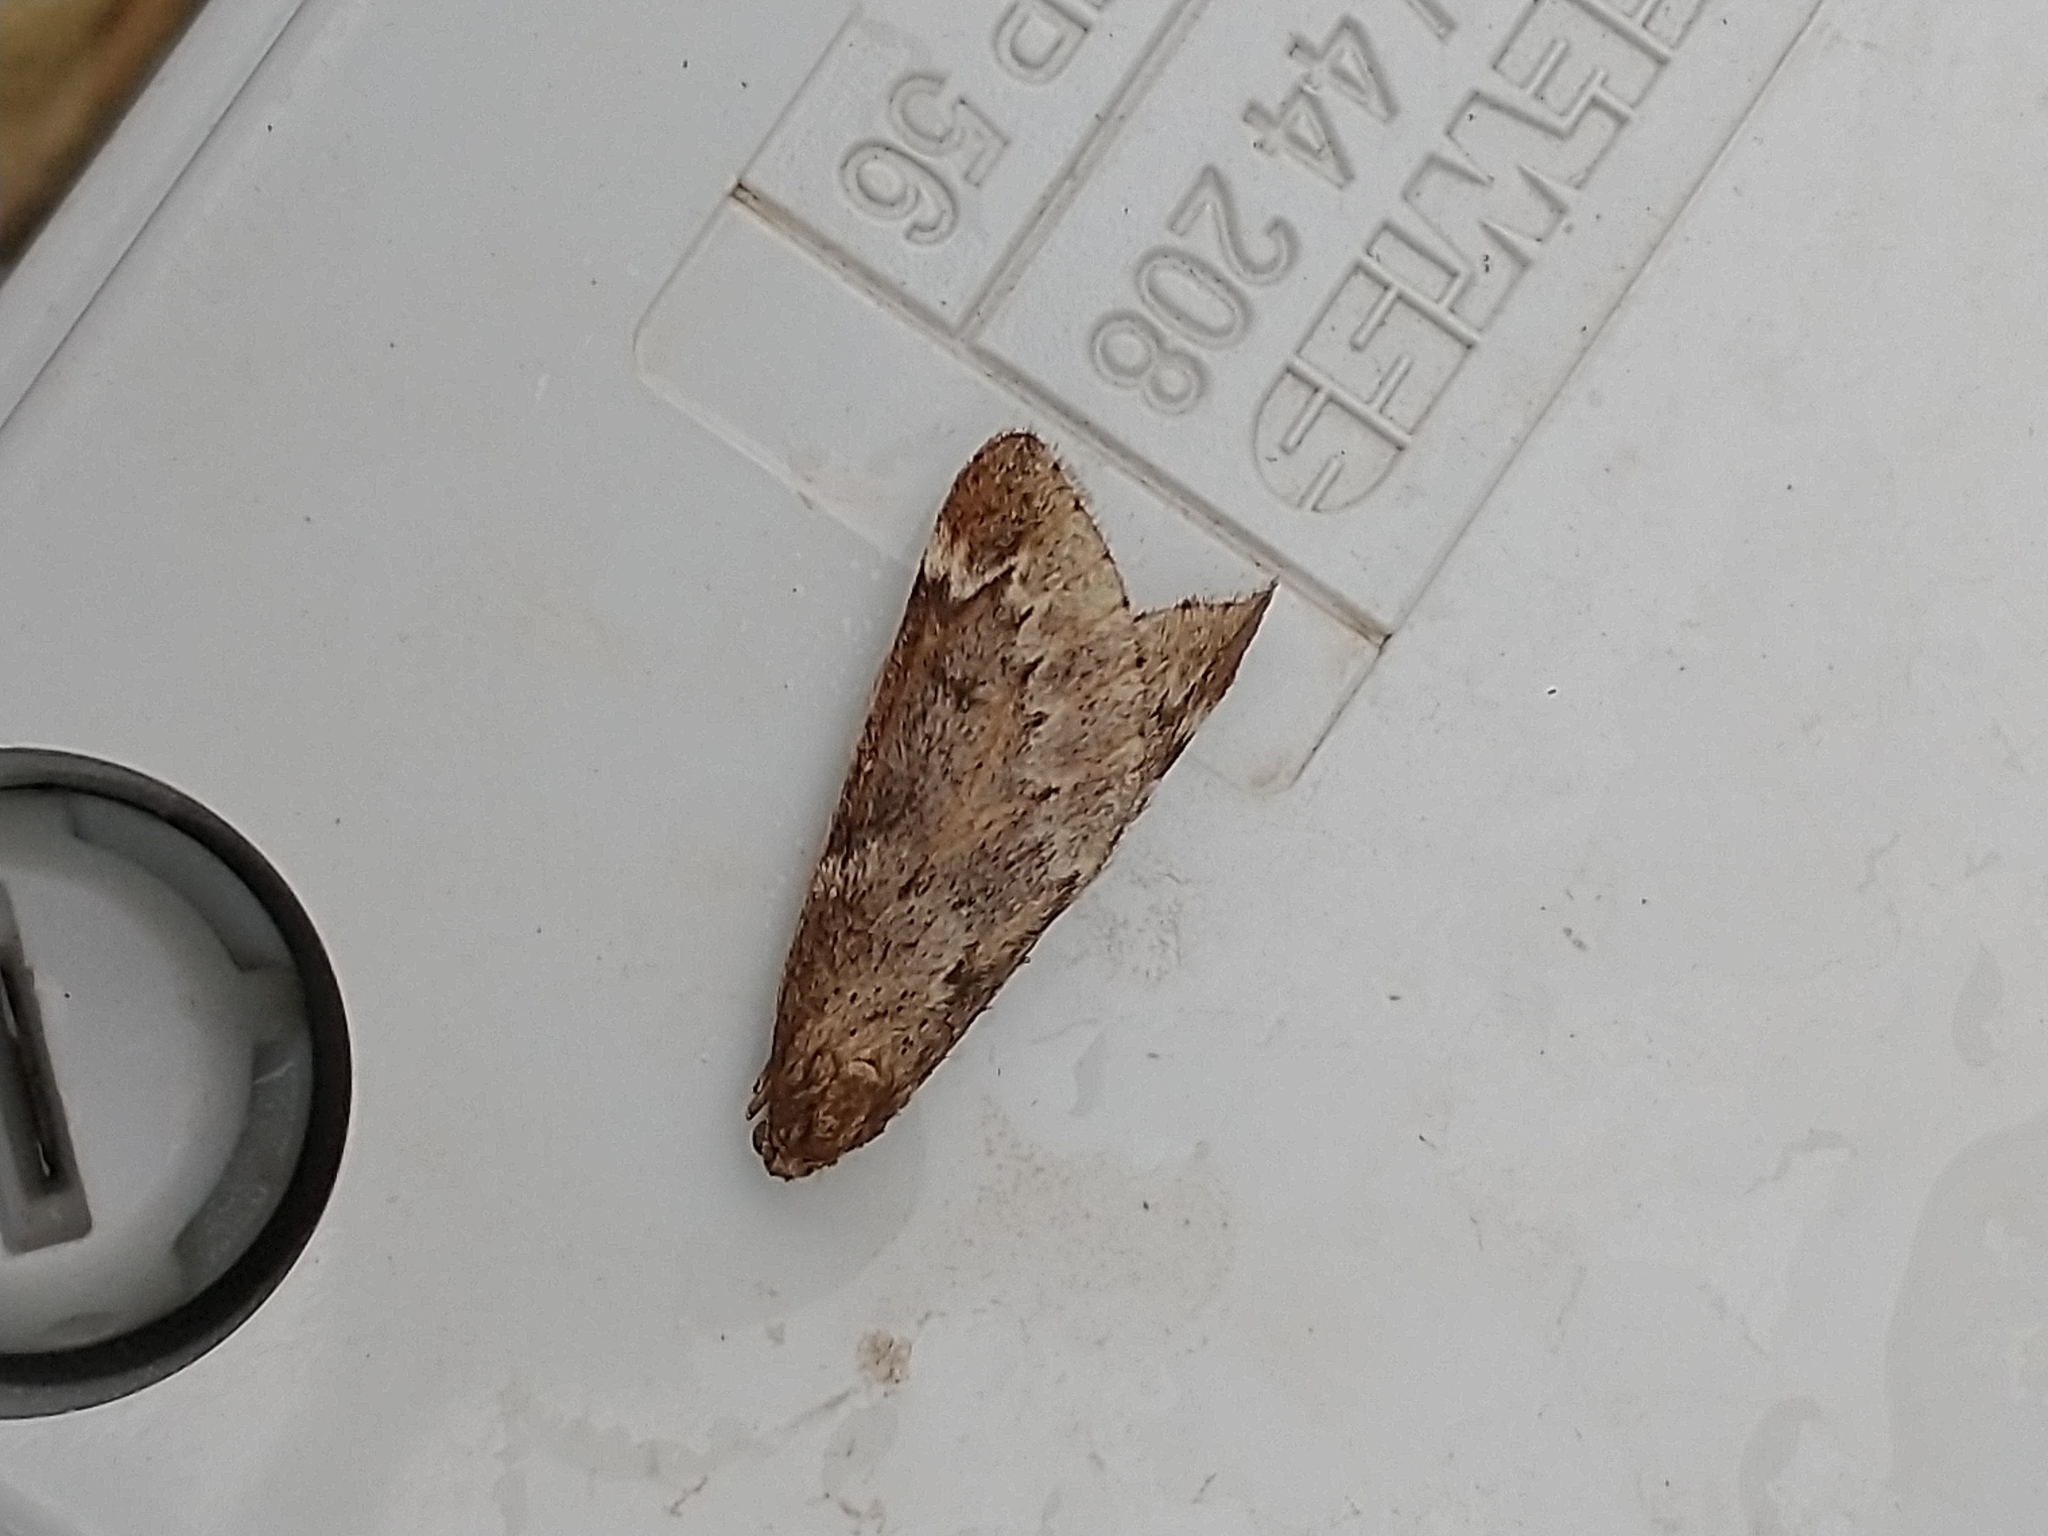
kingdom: Animalia
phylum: Arthropoda
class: Insecta
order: Lepidoptera
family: Geometridae
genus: Alsophila
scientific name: Alsophila aescularia
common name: March moth
